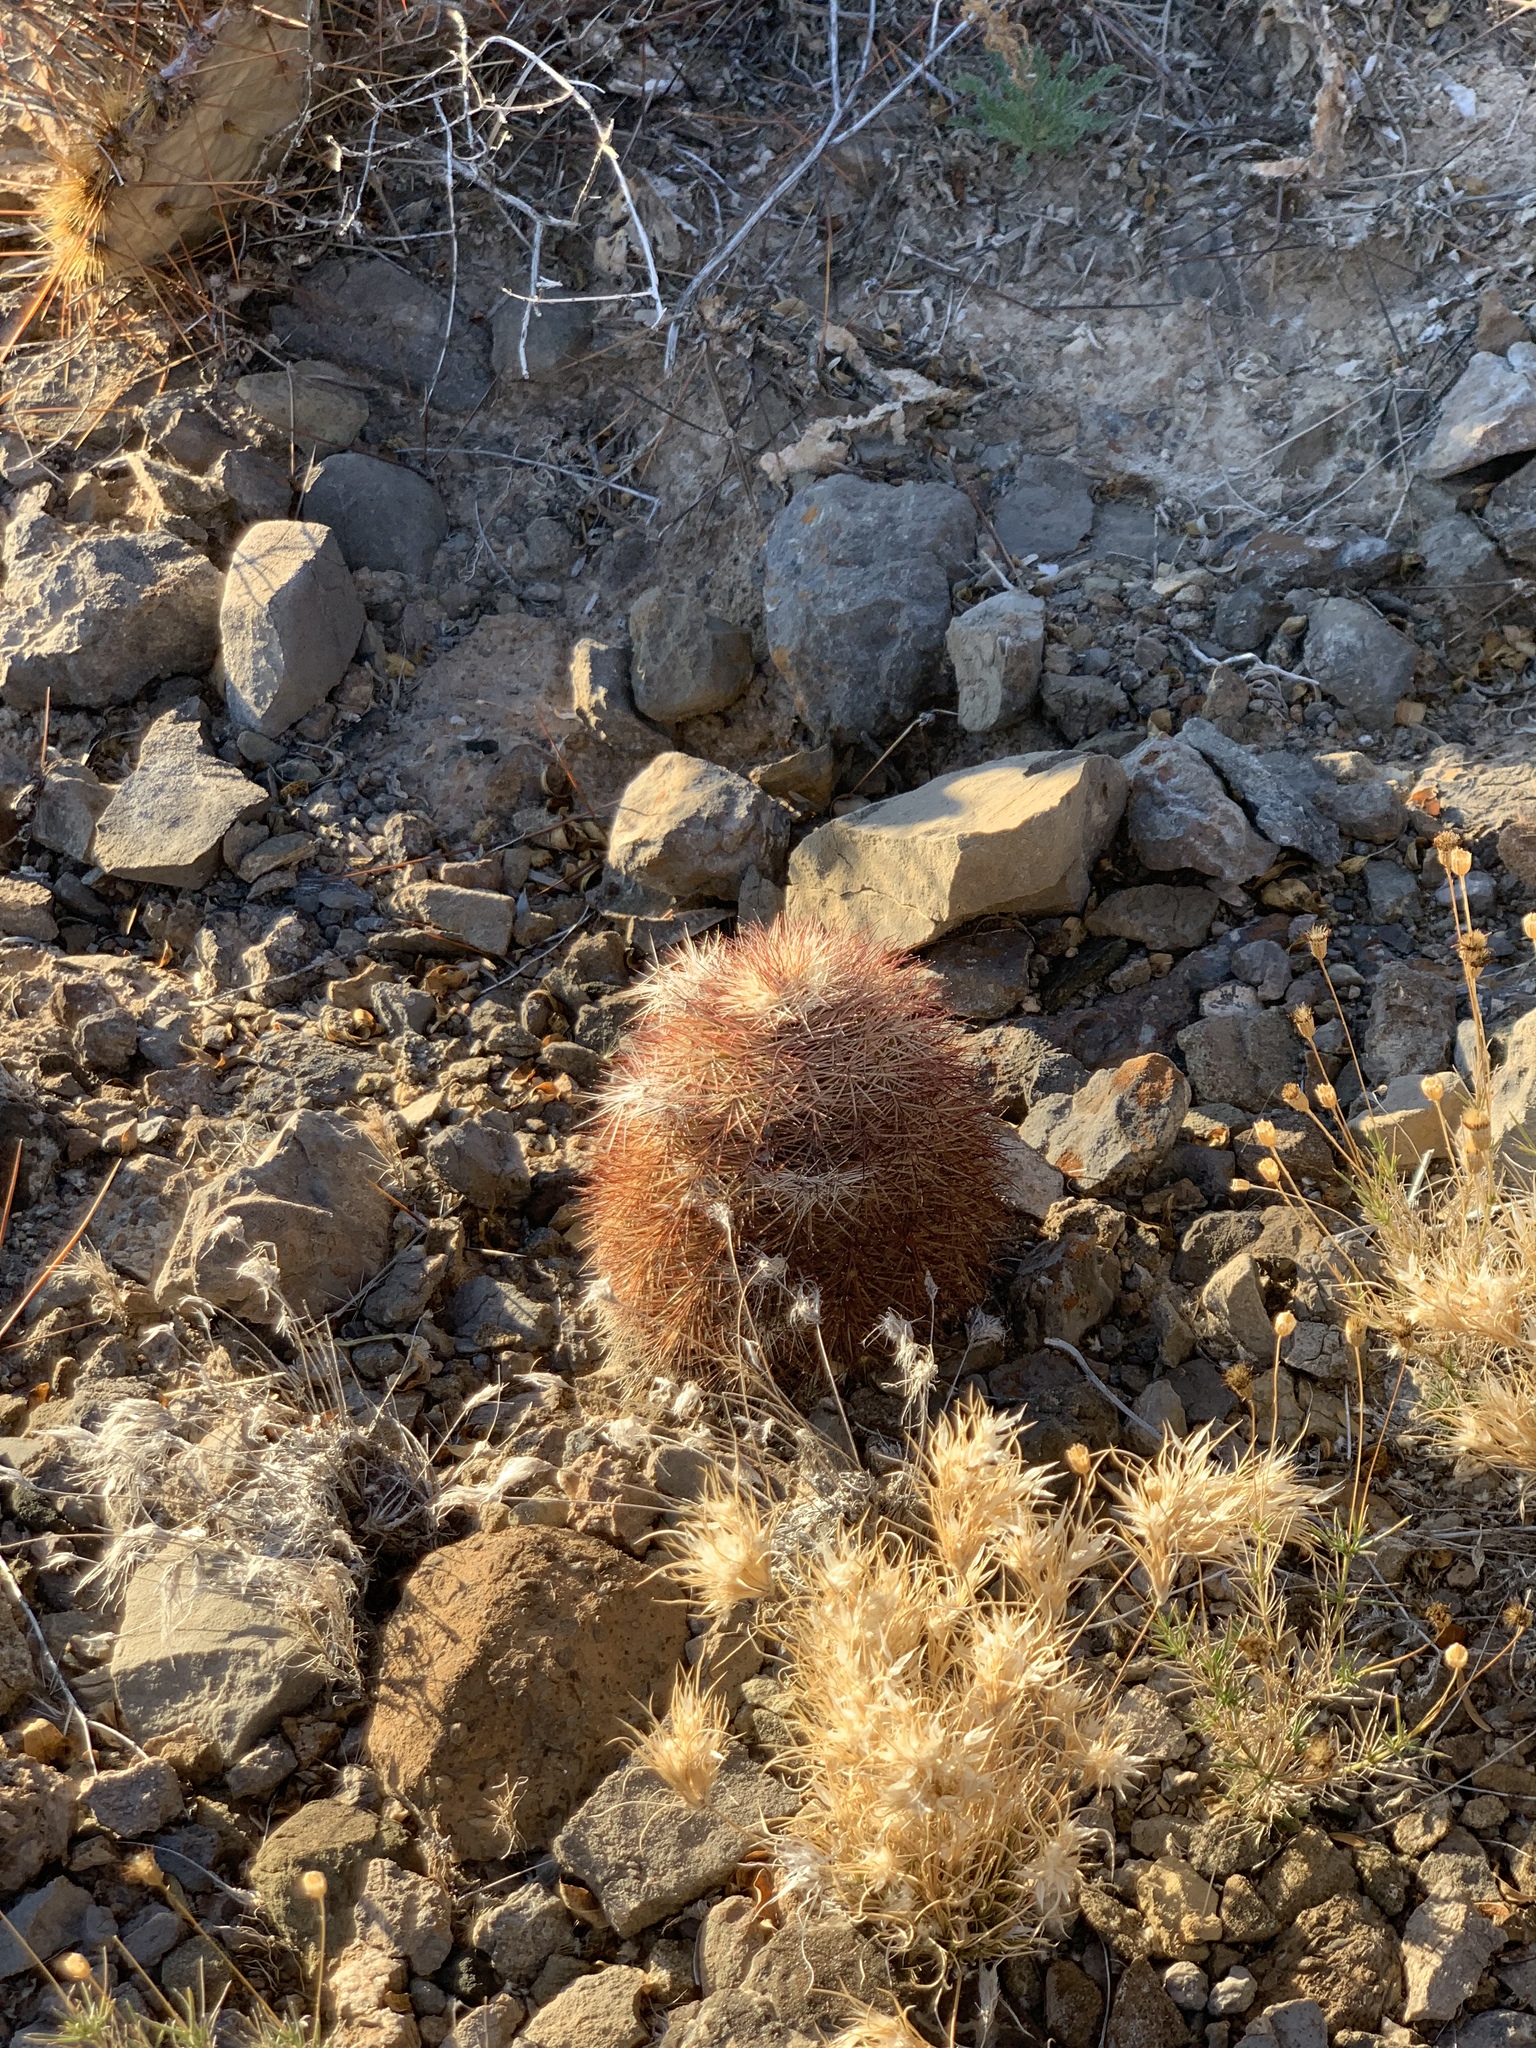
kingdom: Plantae
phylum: Tracheophyta
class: Magnoliopsida
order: Caryophyllales
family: Cactaceae
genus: Echinocereus
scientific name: Echinocereus dasyacanthus
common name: Spiny hedgehog cactus
